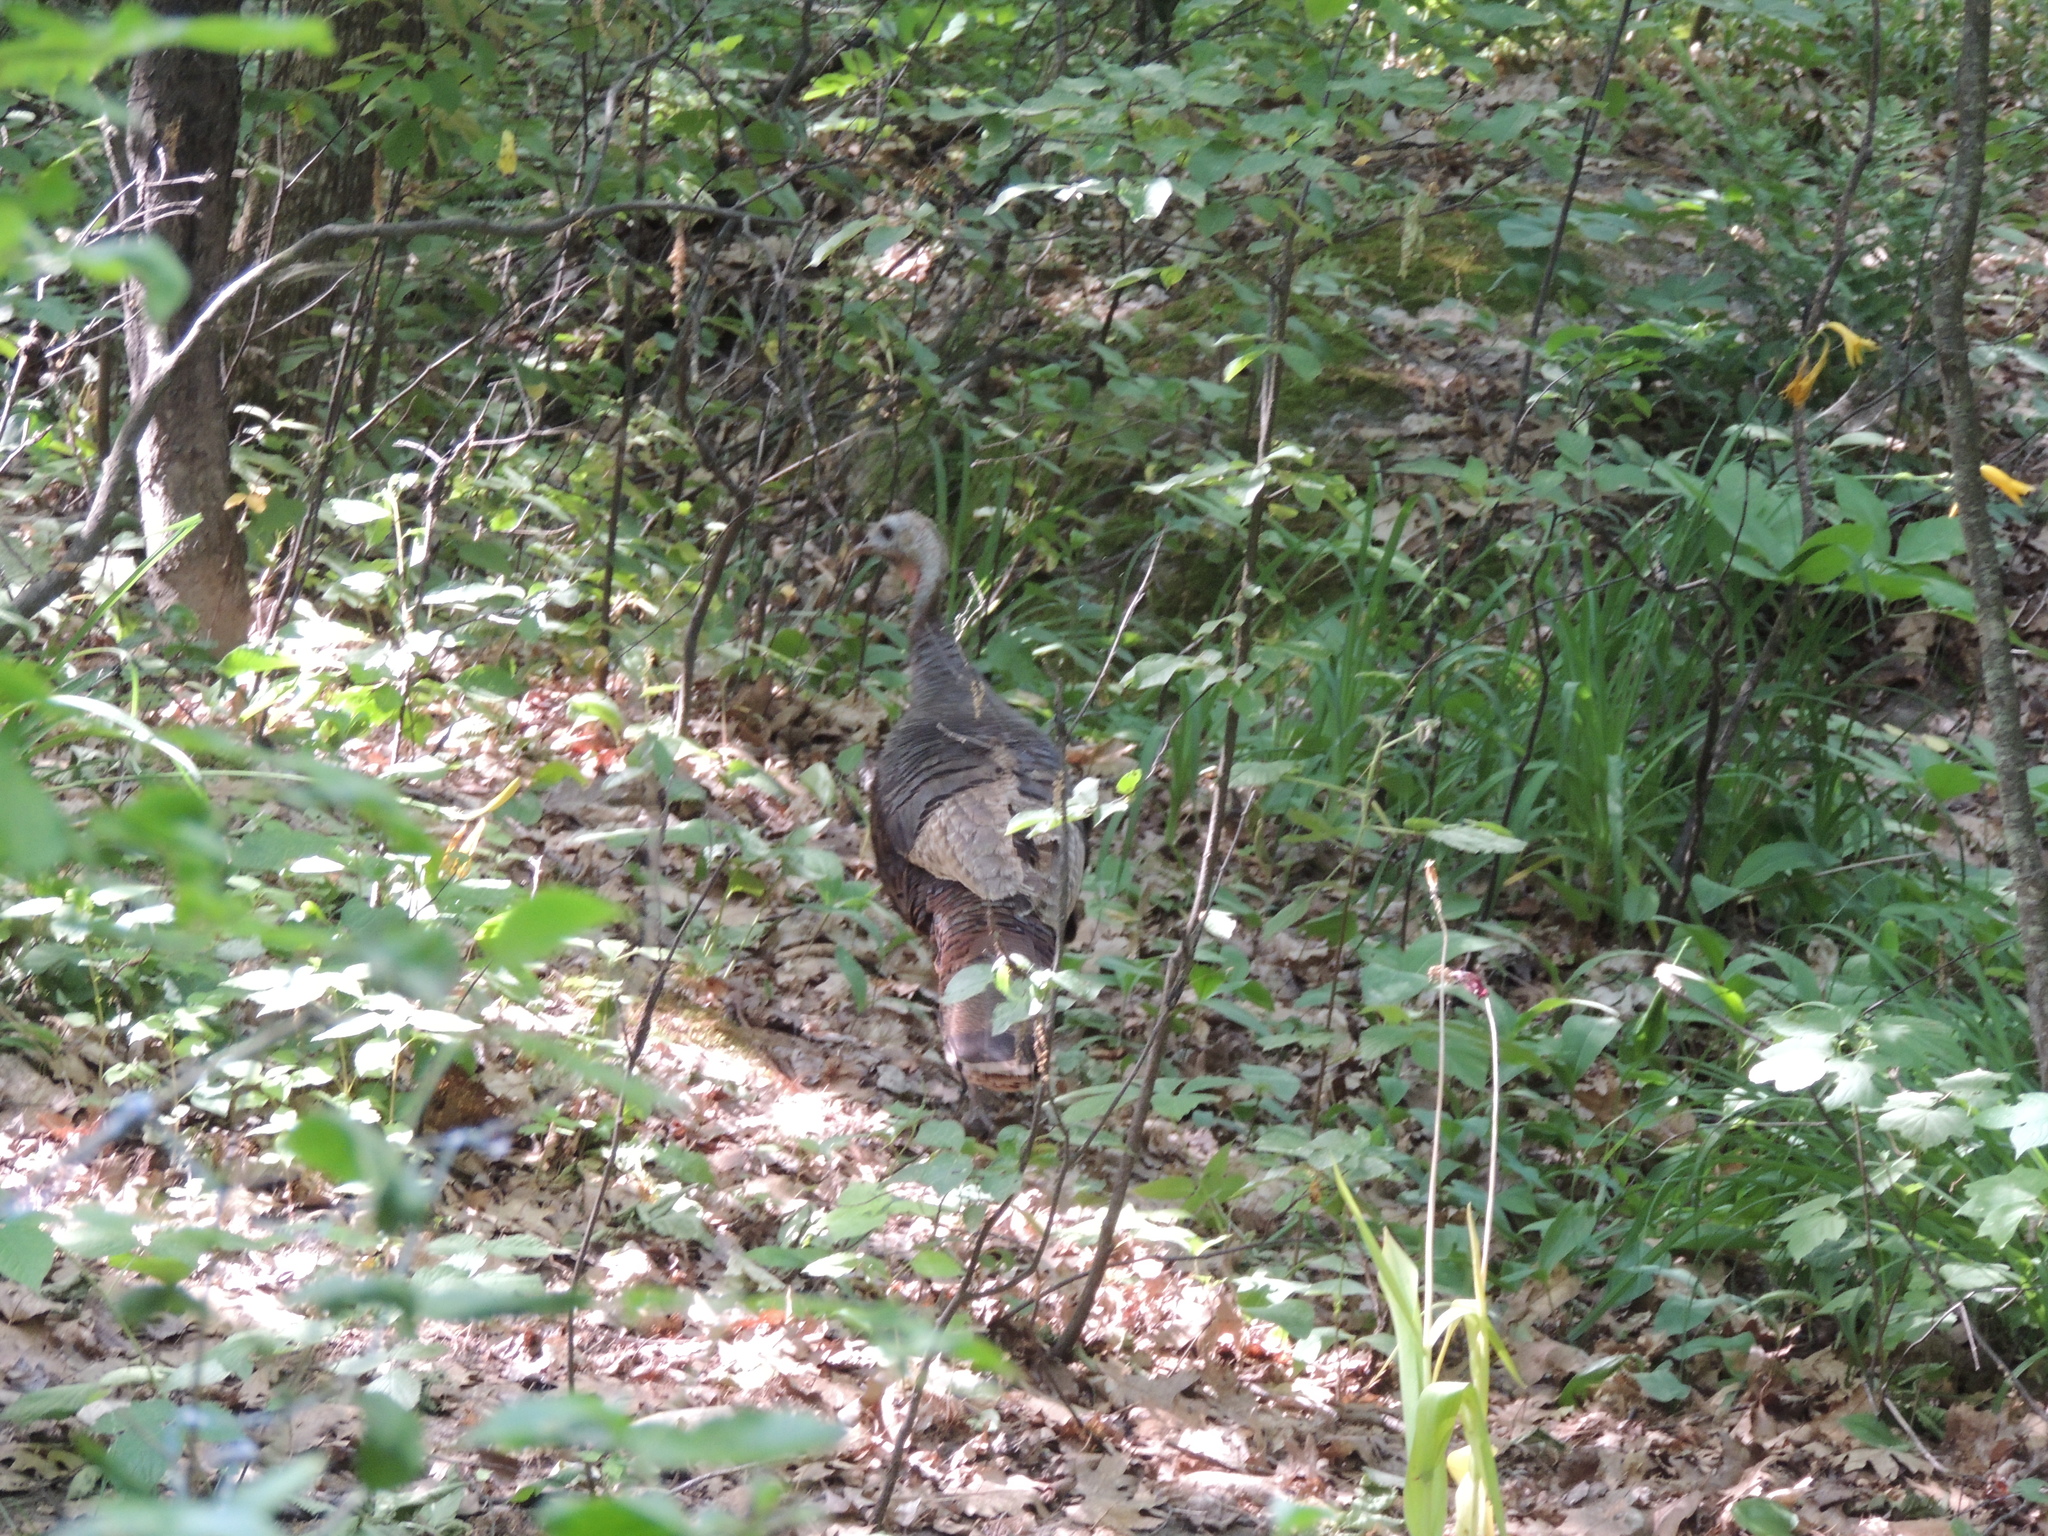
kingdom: Animalia
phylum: Chordata
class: Aves
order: Galliformes
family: Phasianidae
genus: Meleagris
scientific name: Meleagris gallopavo
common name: Wild turkey
